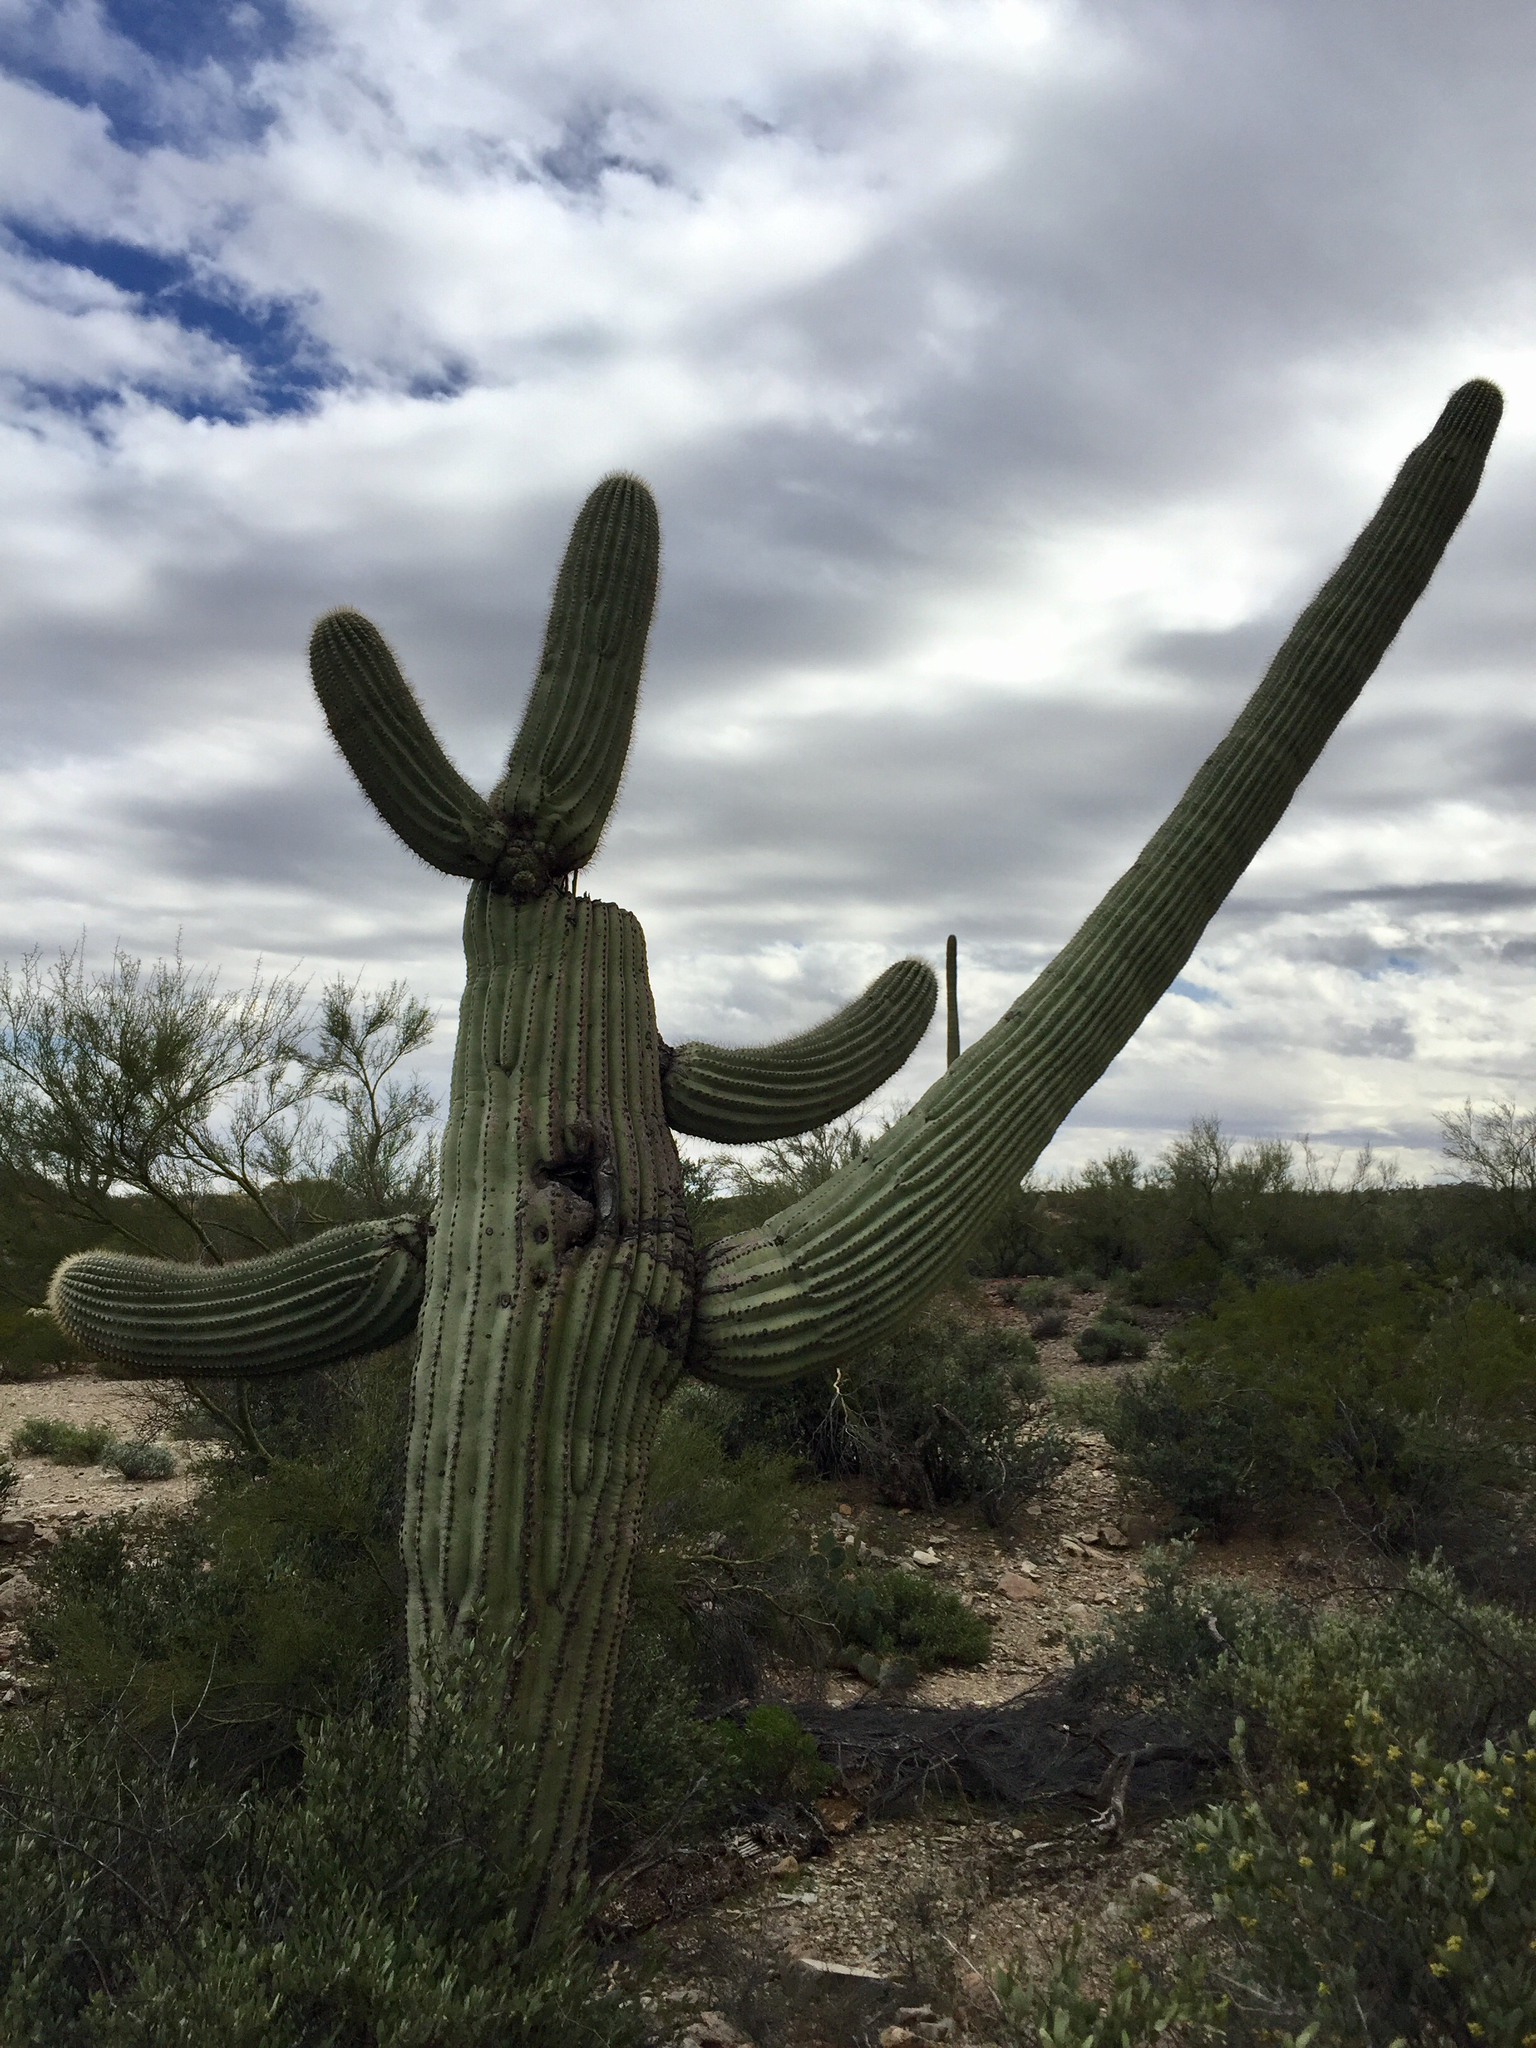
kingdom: Plantae
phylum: Tracheophyta
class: Magnoliopsida
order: Caryophyllales
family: Cactaceae
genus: Carnegiea
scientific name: Carnegiea gigantea
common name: Saguaro
